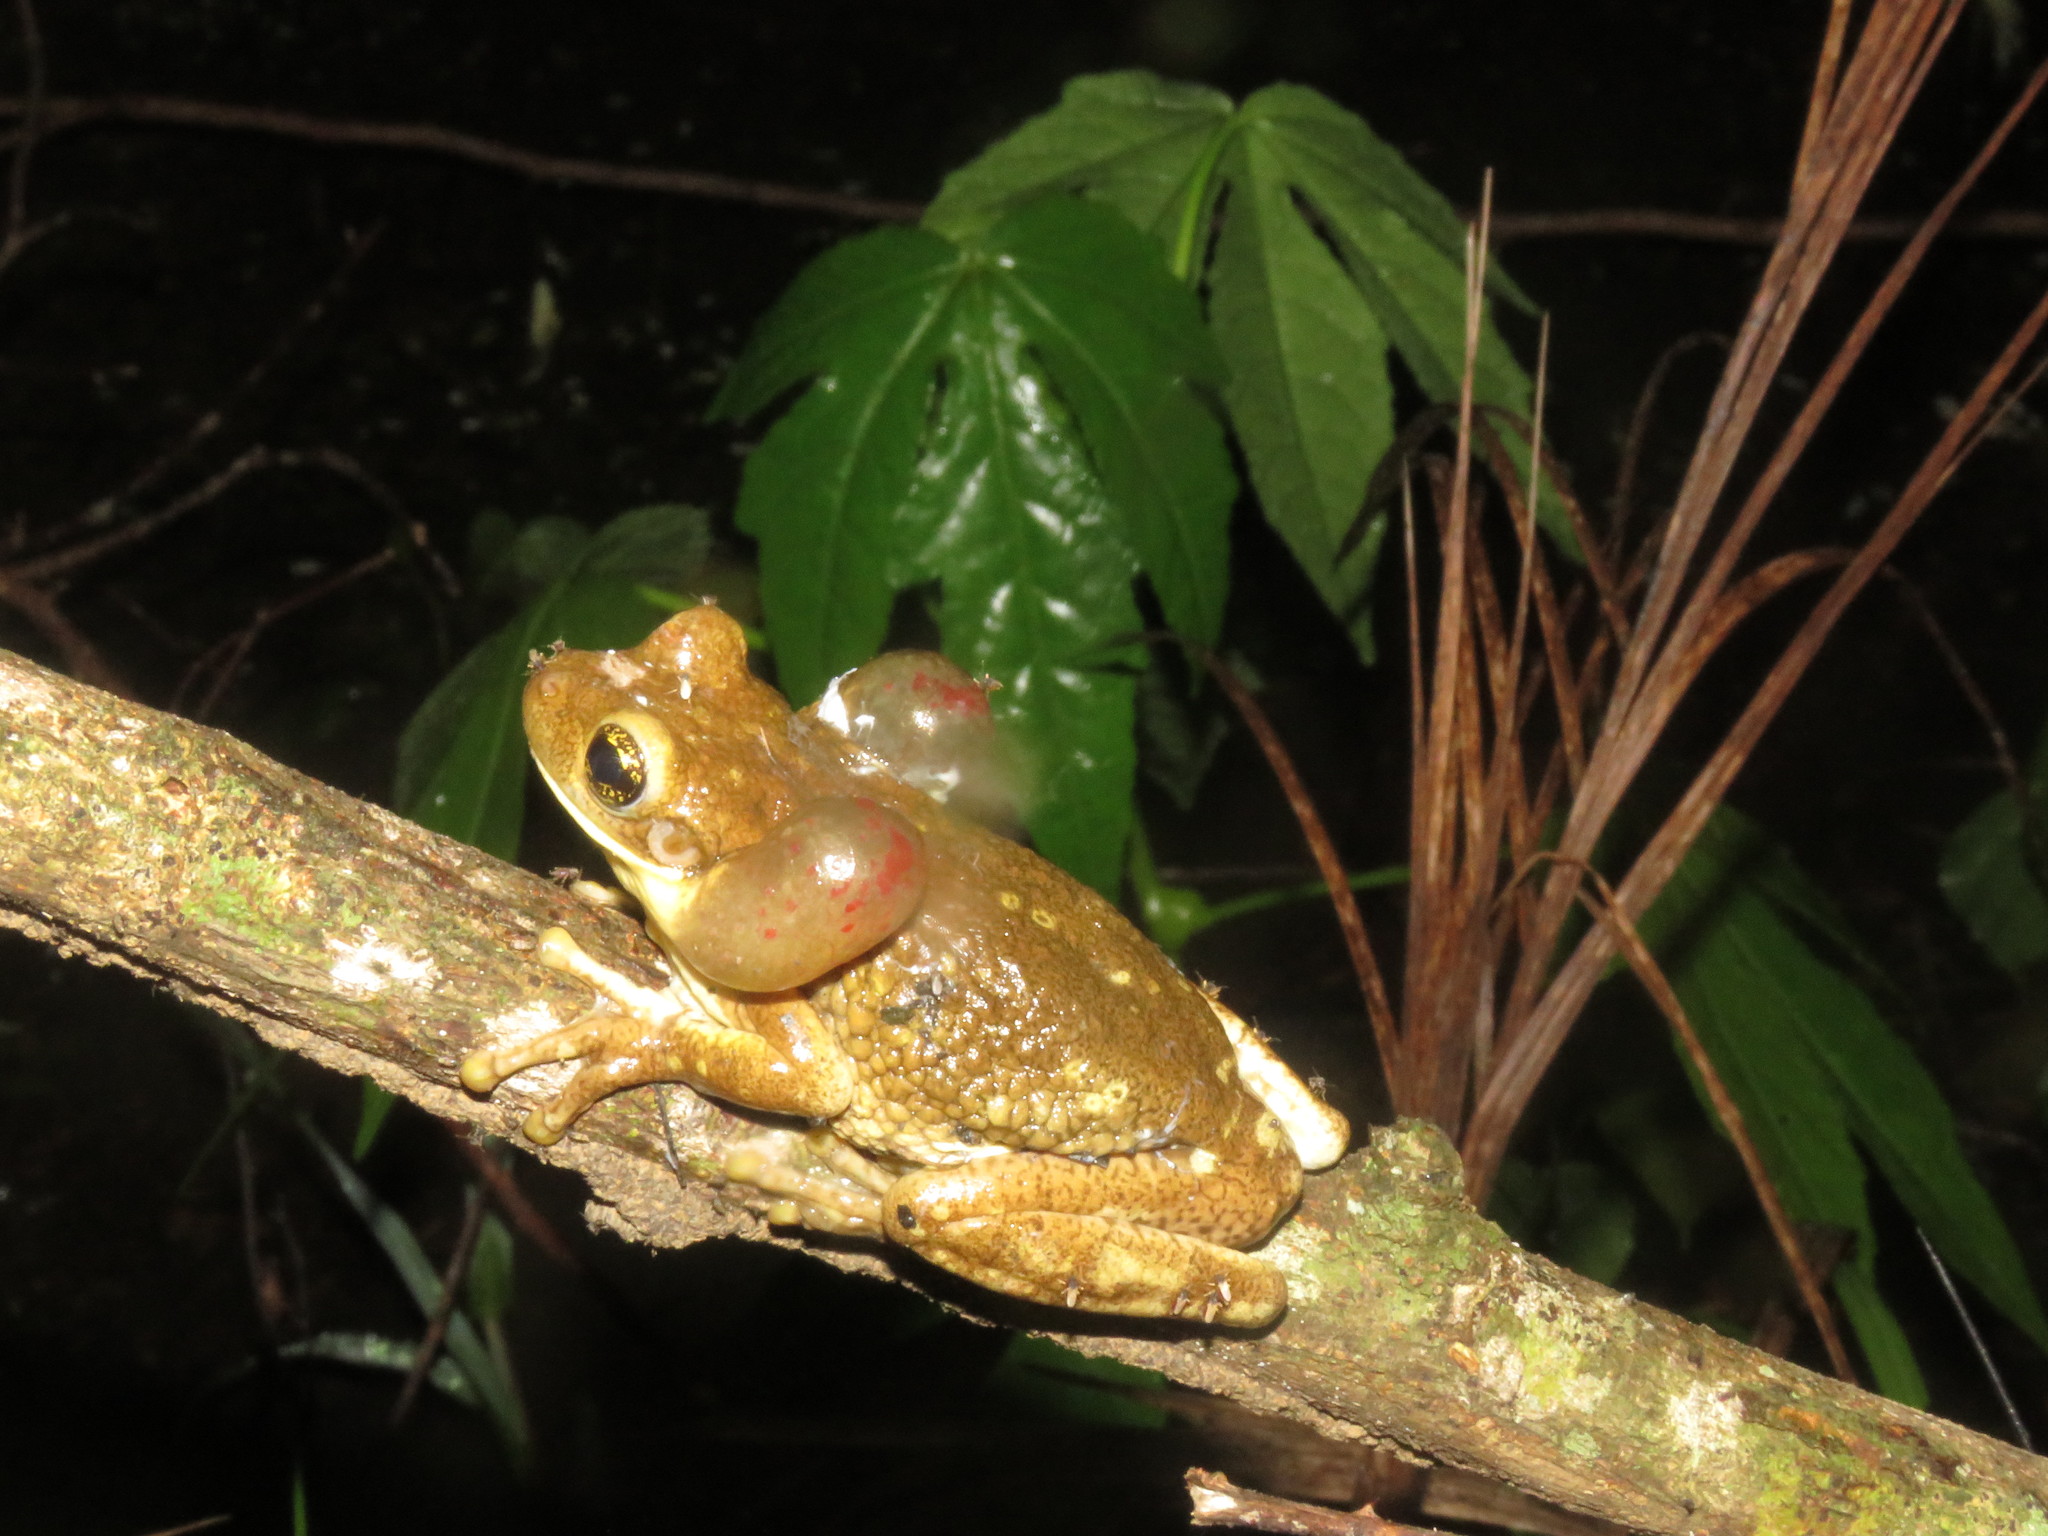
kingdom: Animalia
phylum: Chordata
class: Amphibia
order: Anura
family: Hylidae
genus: Trachycephalus
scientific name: Trachycephalus typhonius
